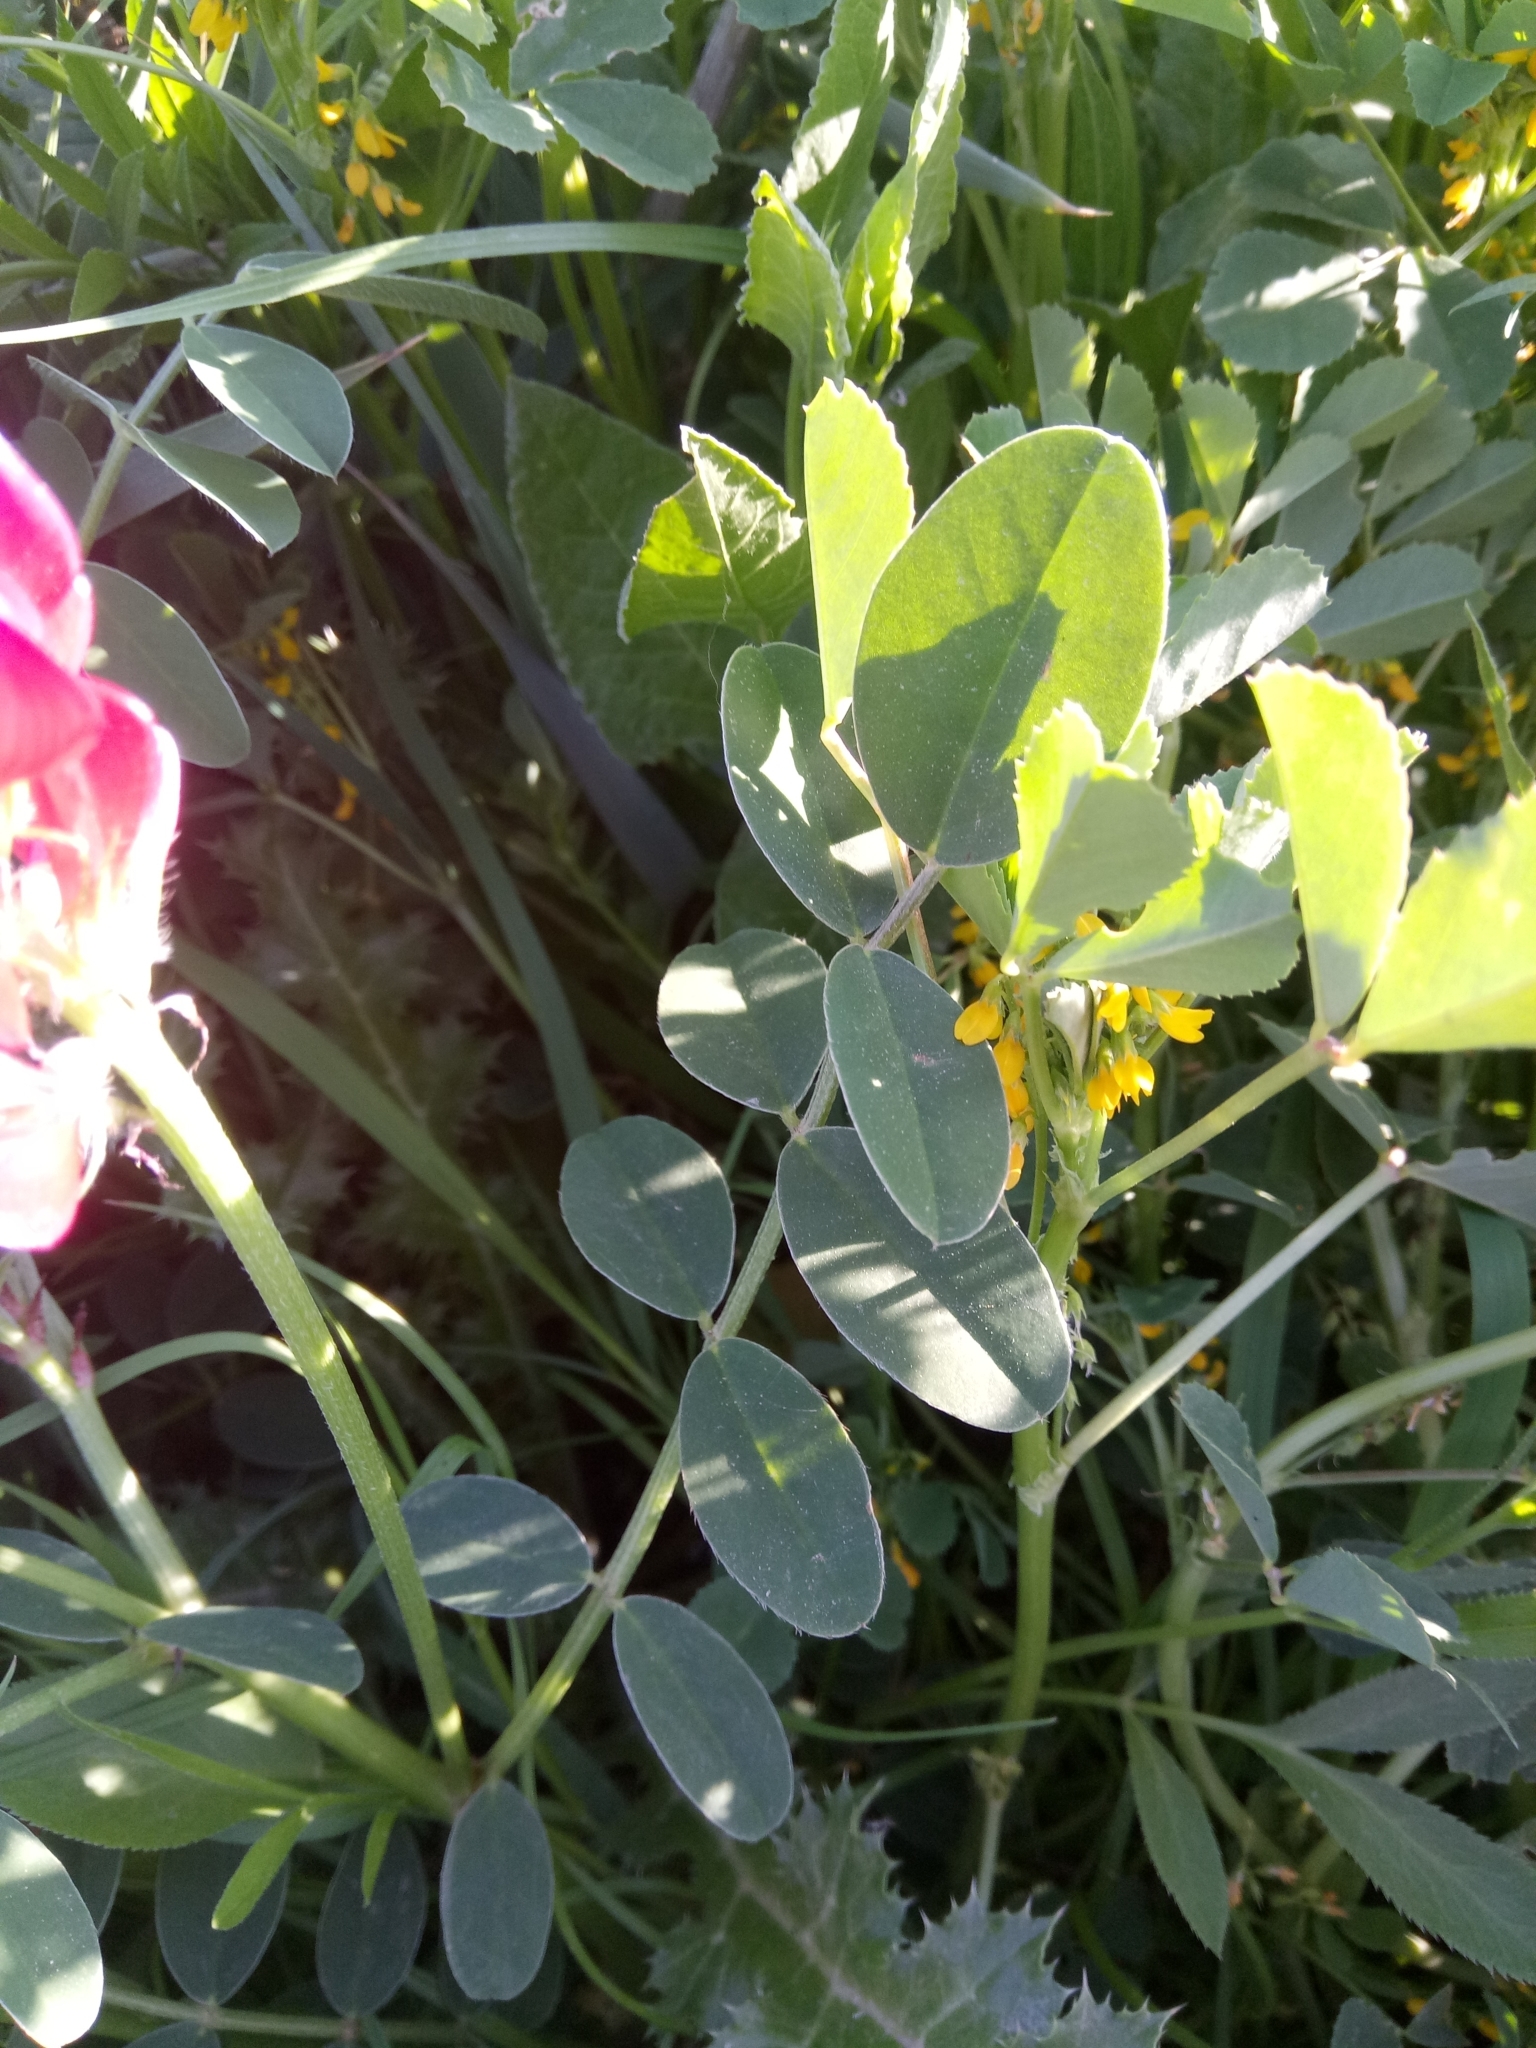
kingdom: Plantae
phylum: Tracheophyta
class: Magnoliopsida
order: Fabales
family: Fabaceae
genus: Sulla
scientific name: Sulla coronaria
